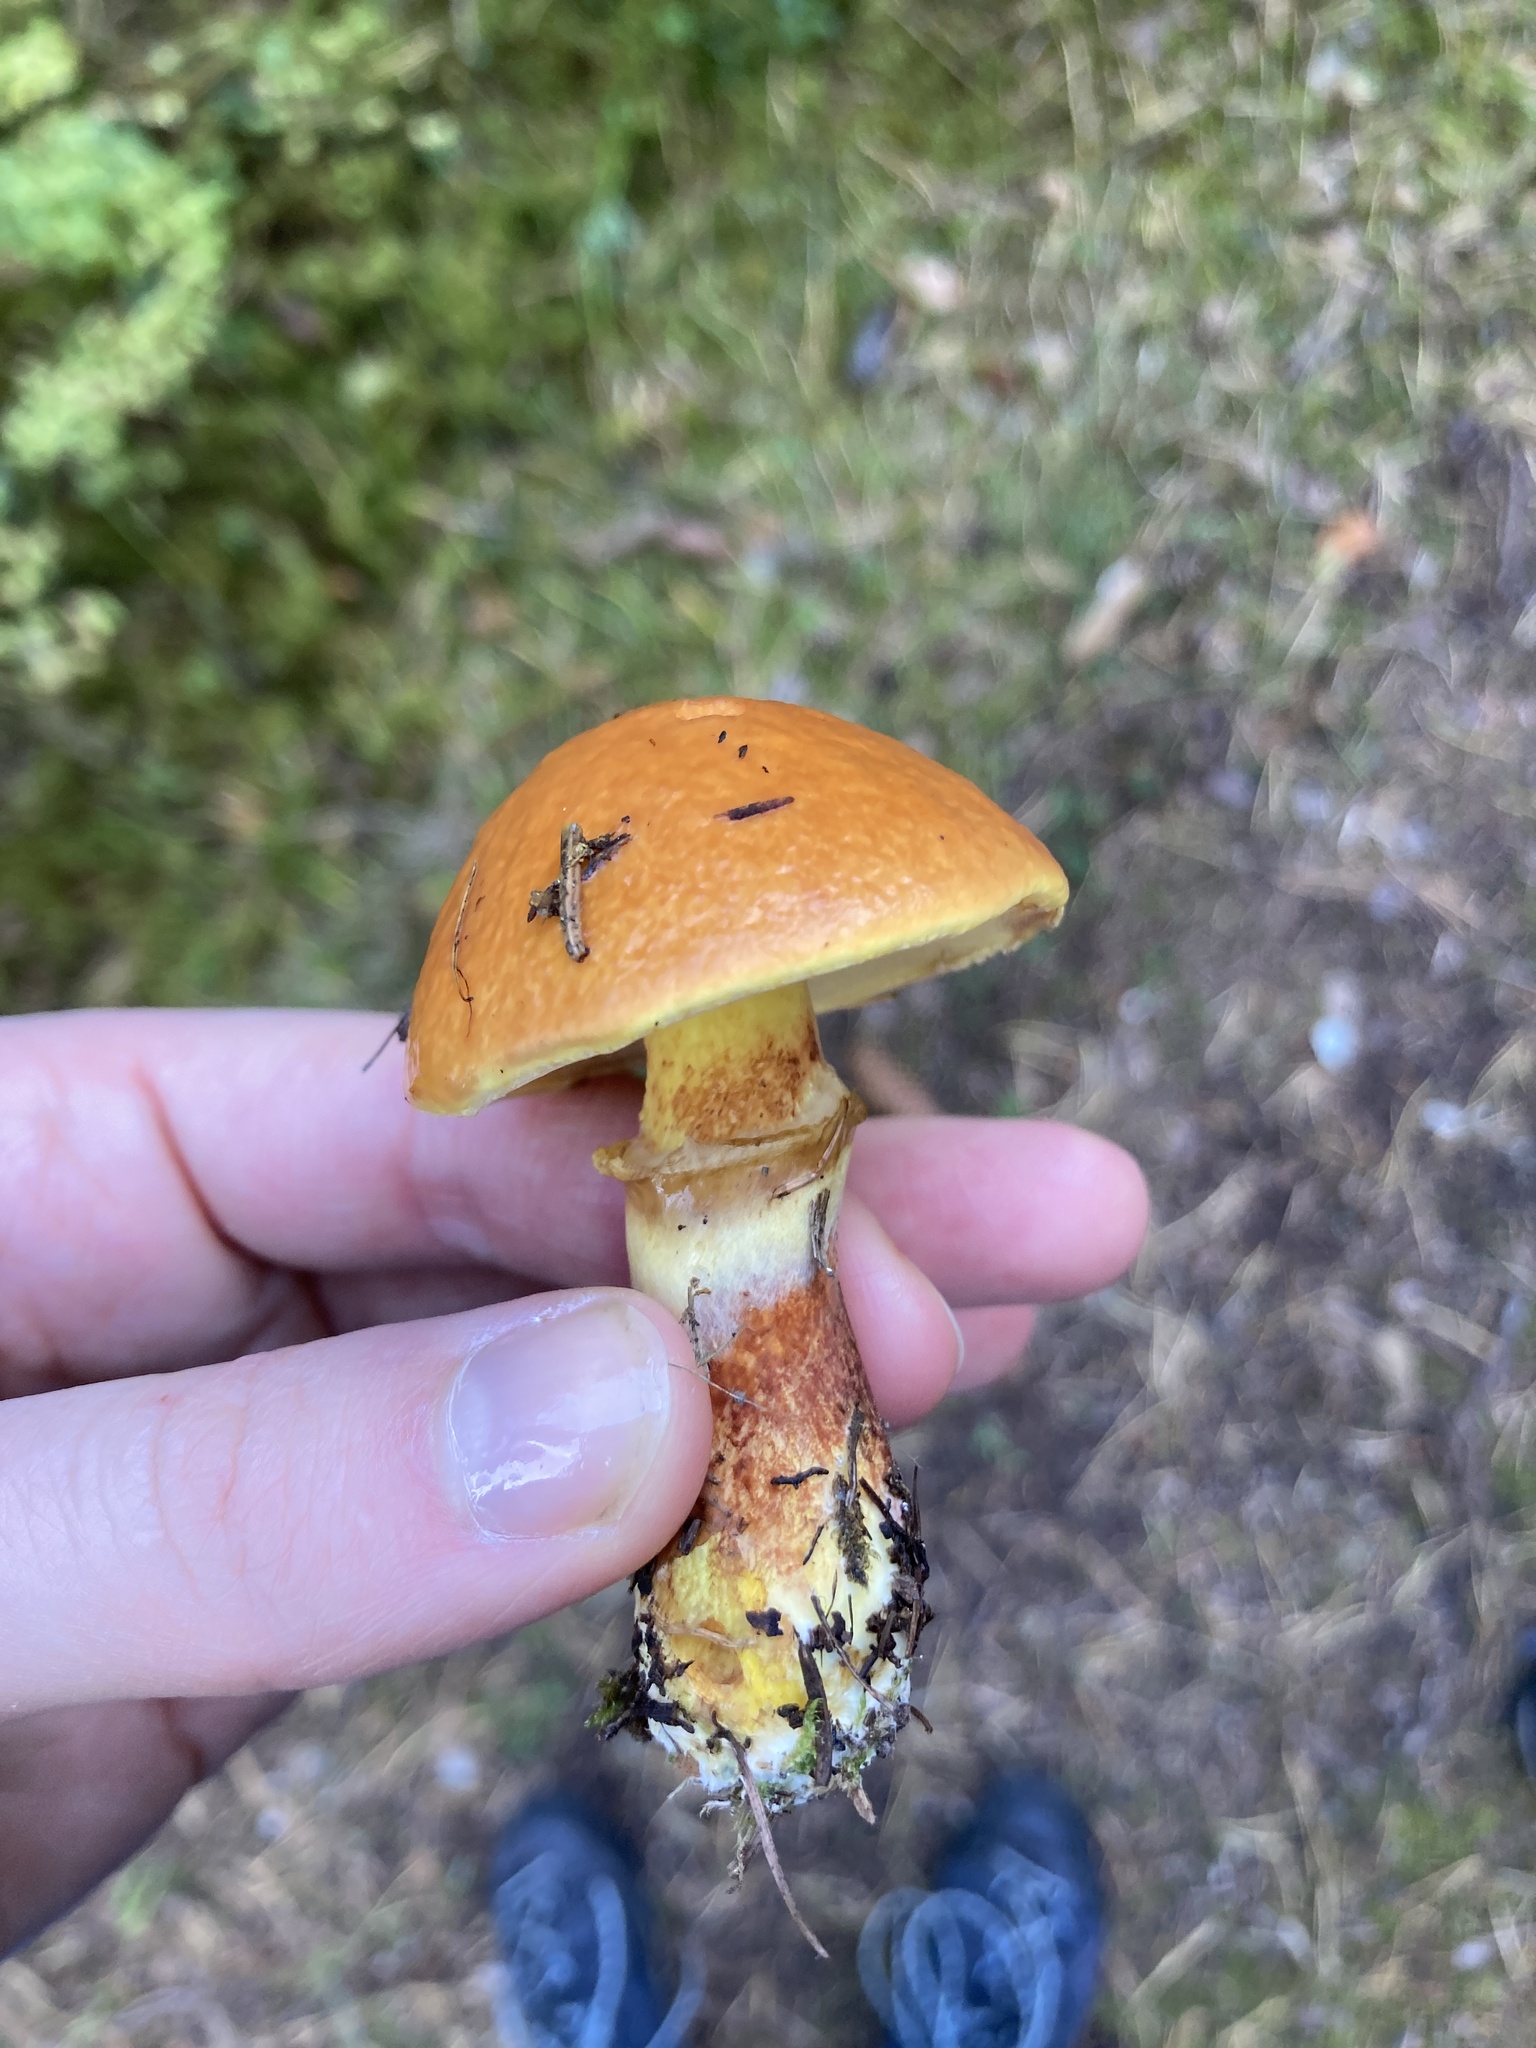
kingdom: Fungi
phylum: Basidiomycota
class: Agaricomycetes
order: Boletales
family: Suillaceae
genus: Suillus
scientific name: Suillus grevillei
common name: Larch bolete
